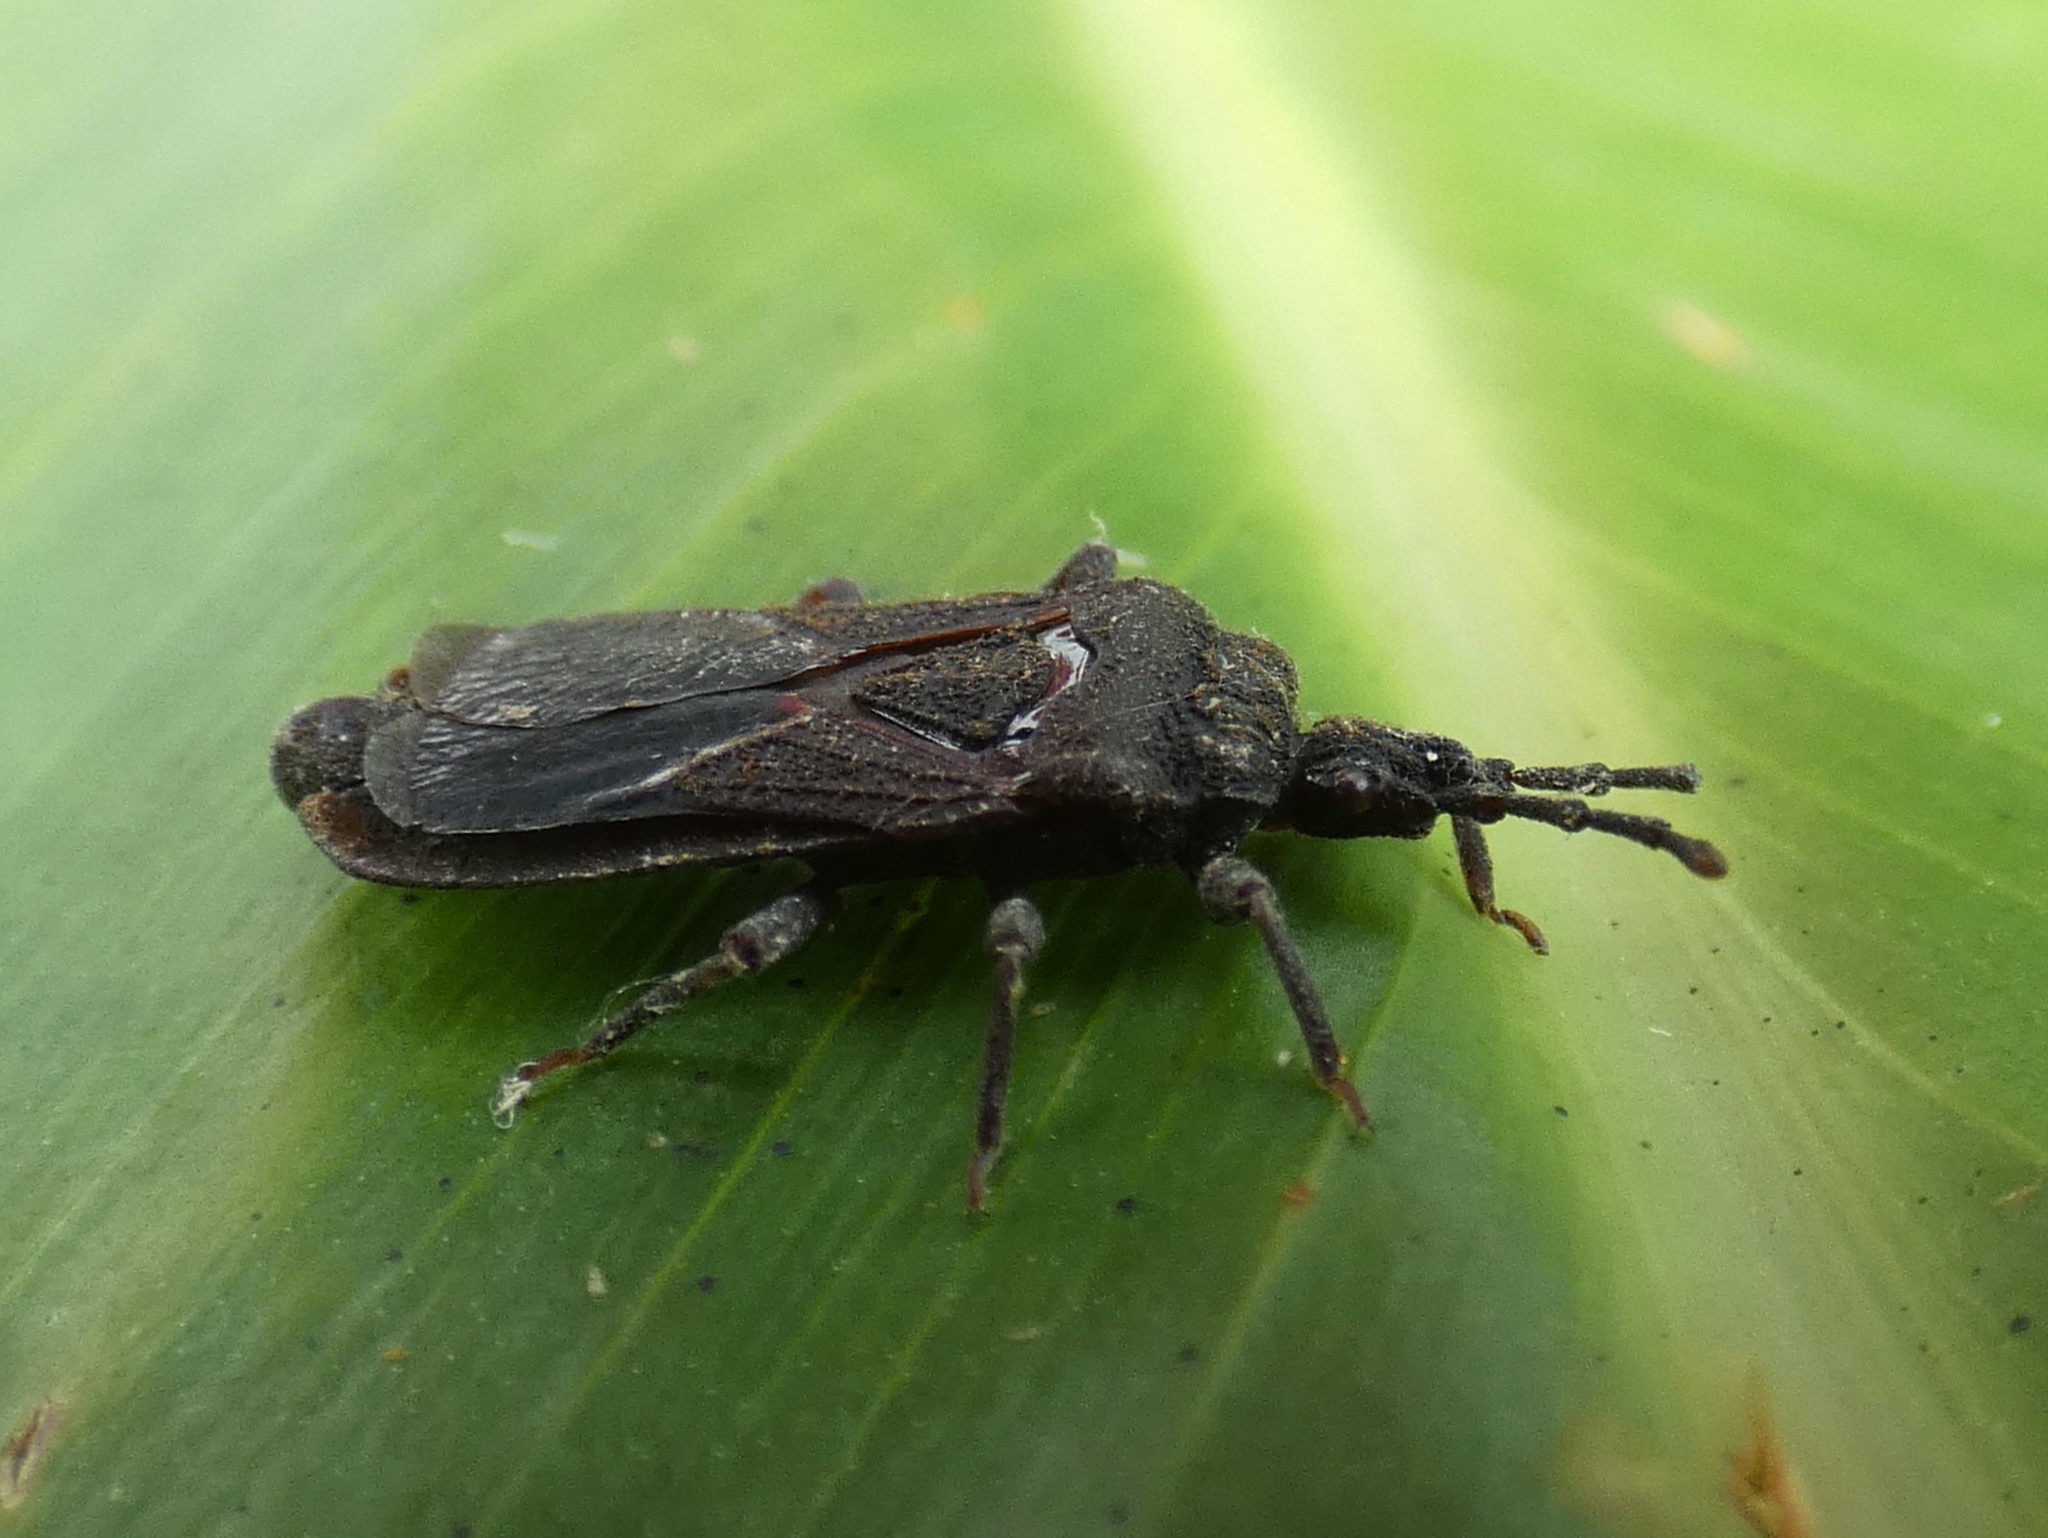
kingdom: Animalia
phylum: Arthropoda
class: Insecta
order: Hemiptera
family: Aradidae
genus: Brachyrhynchus
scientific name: Brachyrhynchus membranaceus
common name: Aradid flat bug
